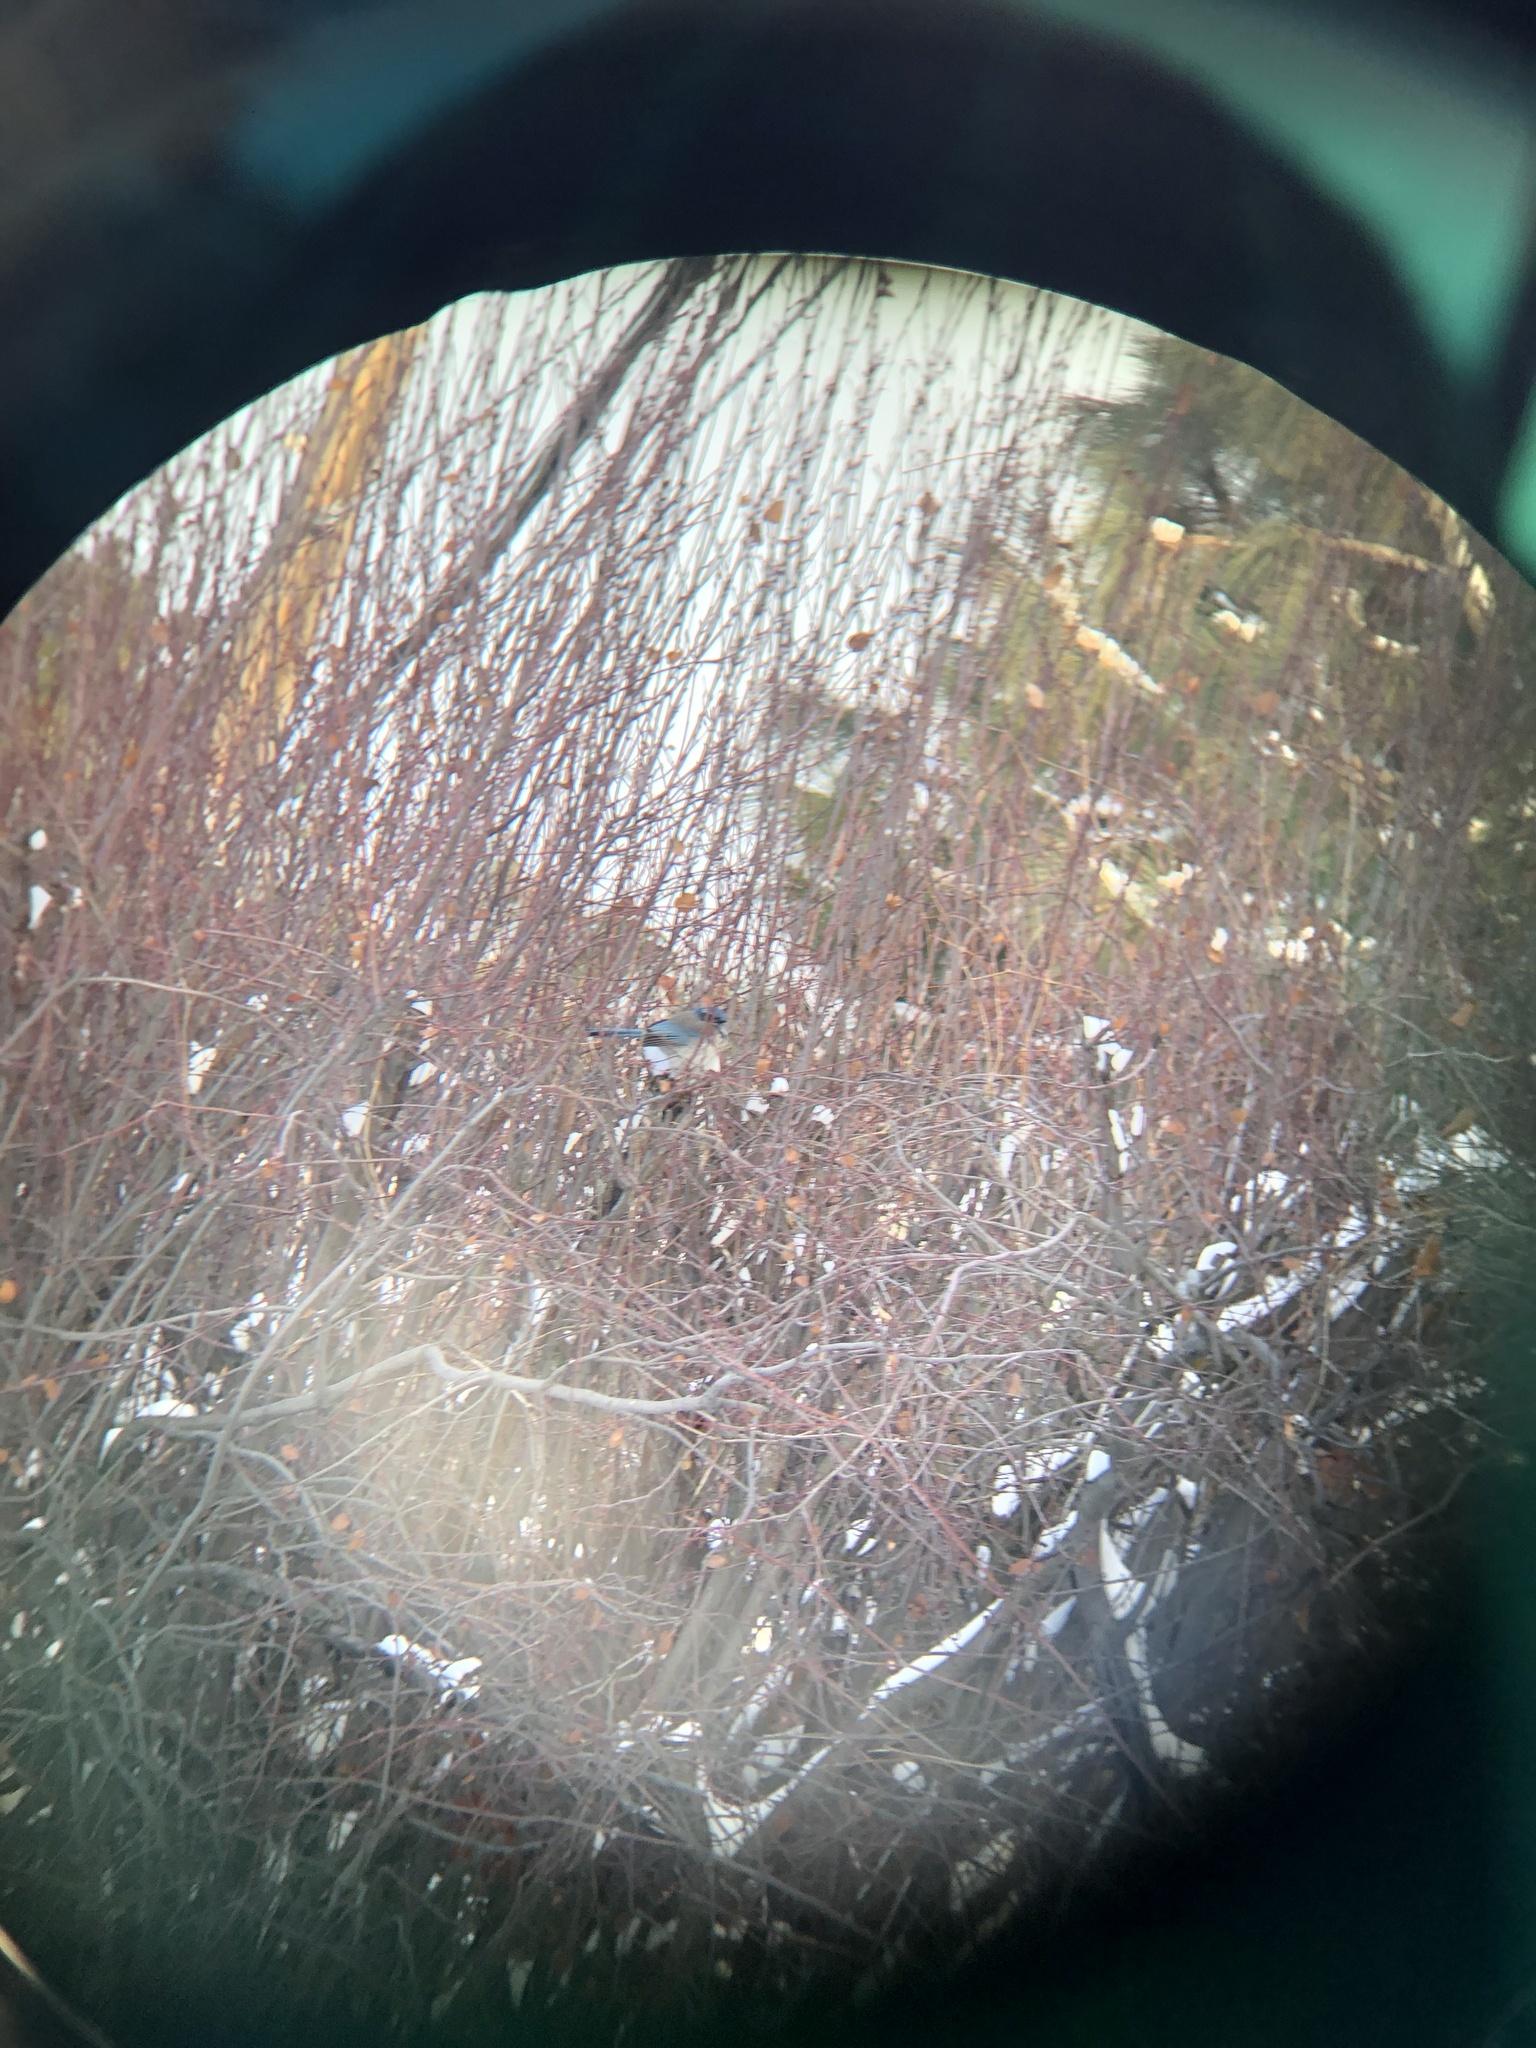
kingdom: Animalia
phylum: Chordata
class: Aves
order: Passeriformes
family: Corvidae
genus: Aphelocoma
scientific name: Aphelocoma californica
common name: California scrub-jay
